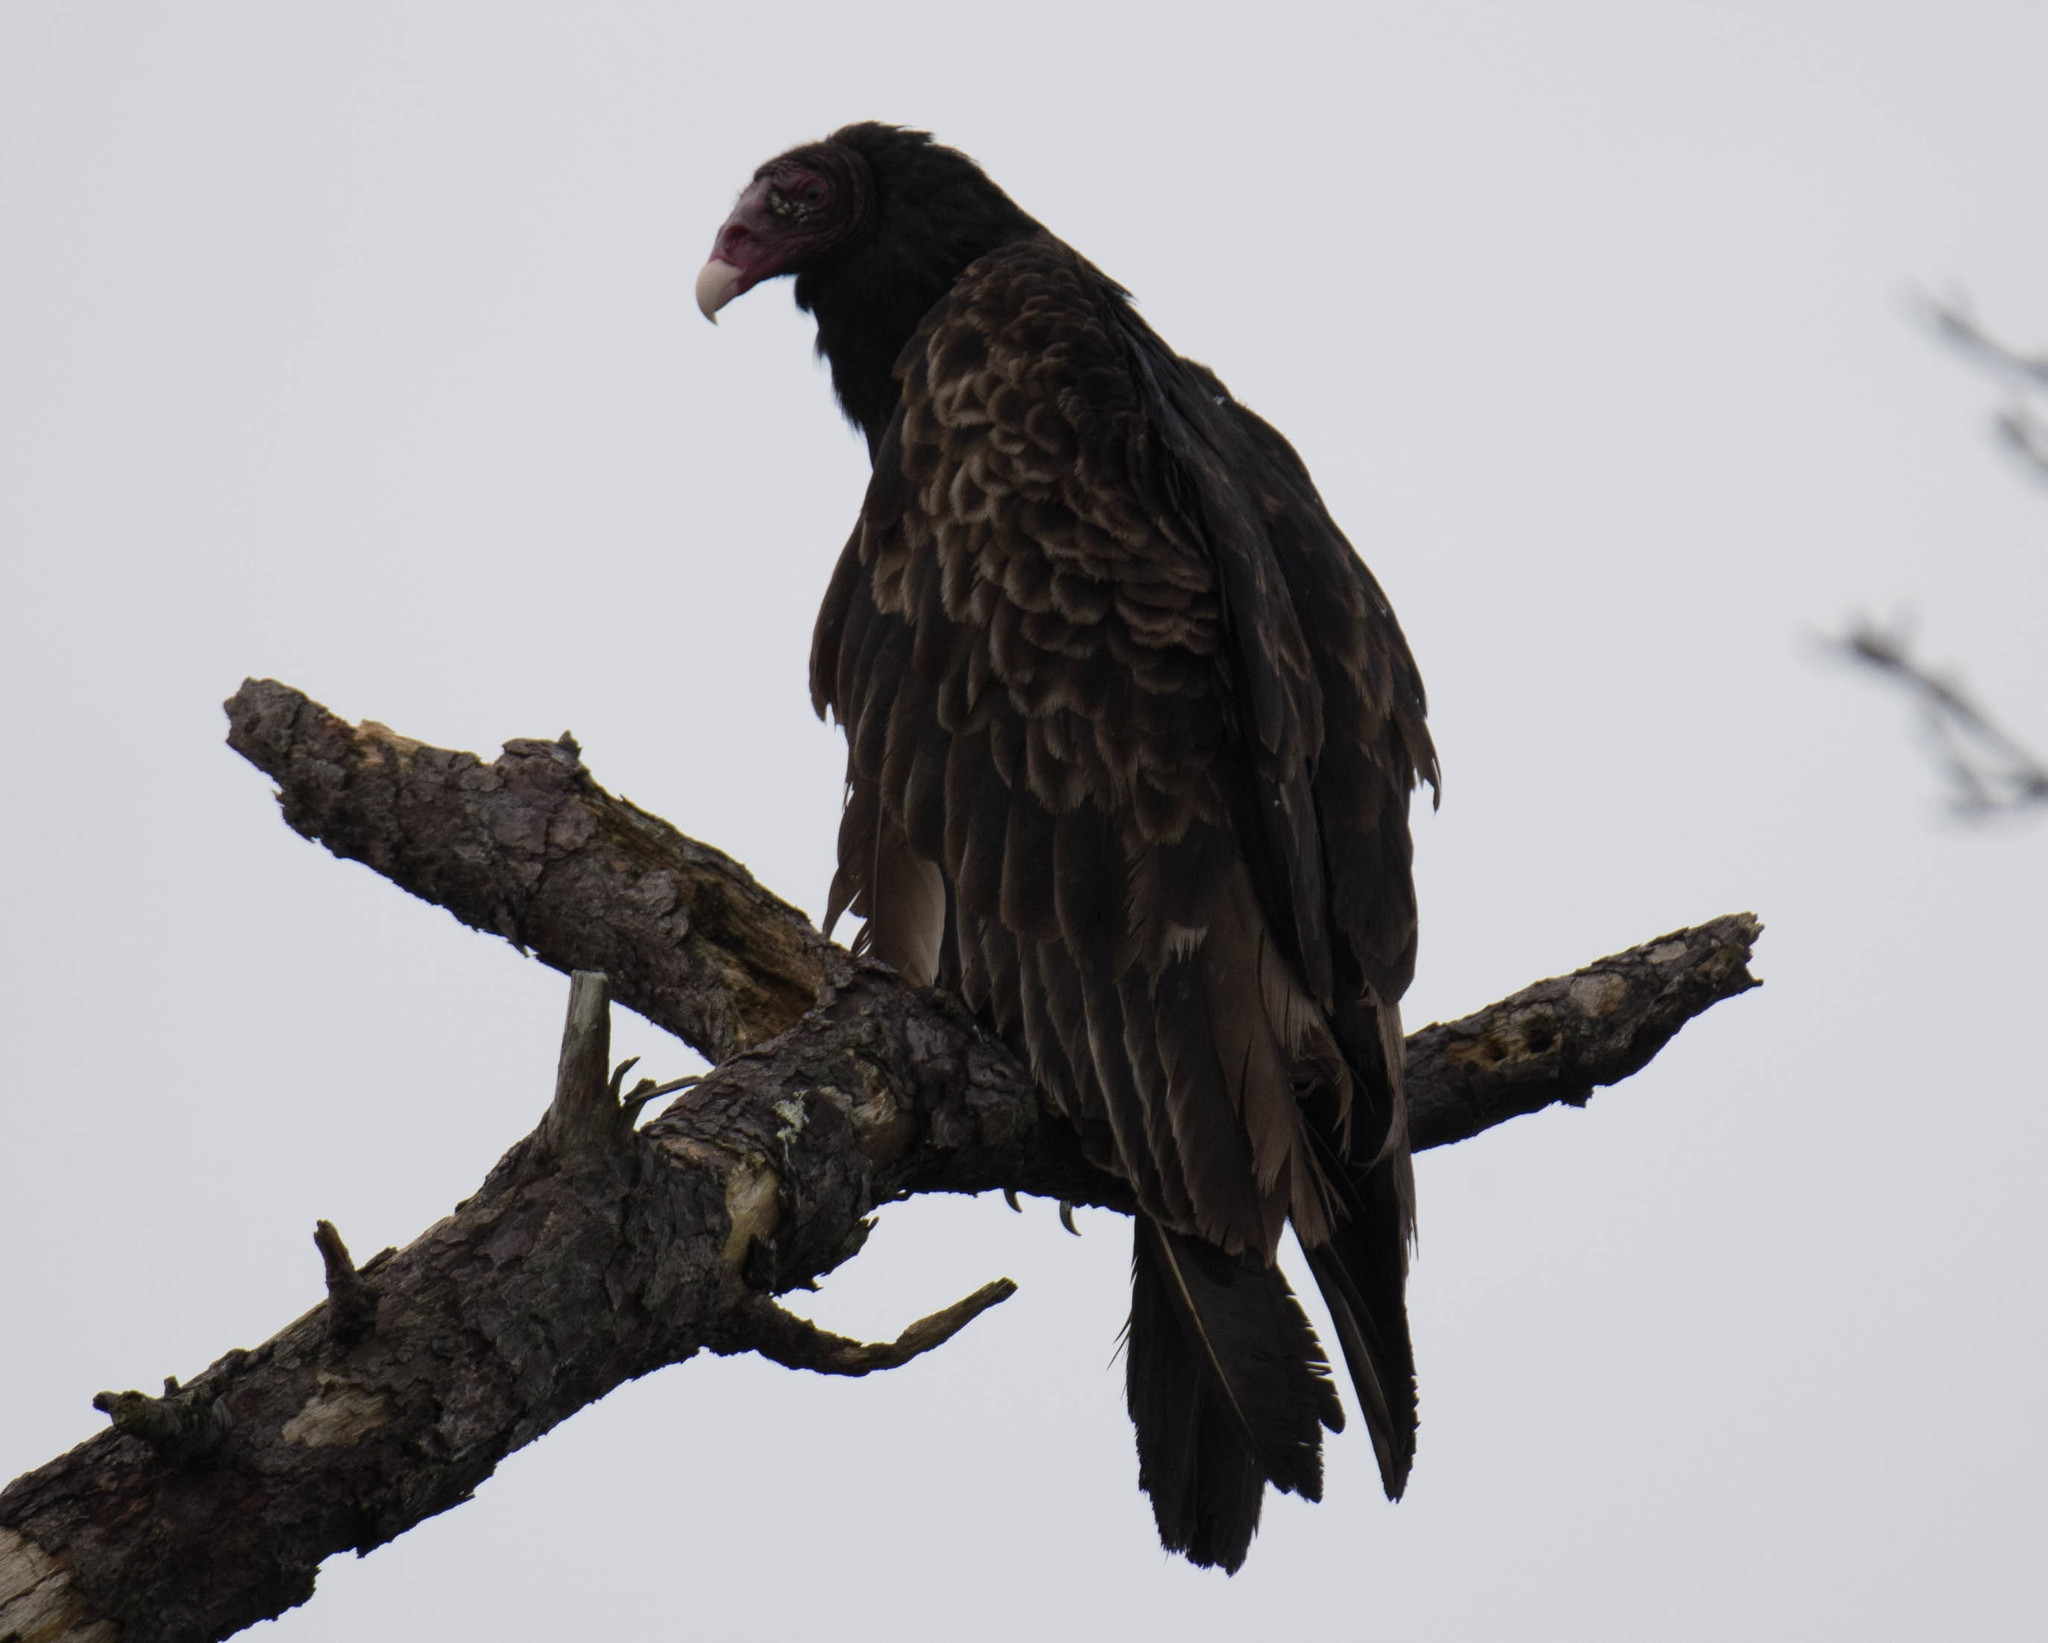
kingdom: Animalia
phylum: Chordata
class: Aves
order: Accipitriformes
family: Cathartidae
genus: Cathartes
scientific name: Cathartes aura
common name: Turkey vulture
